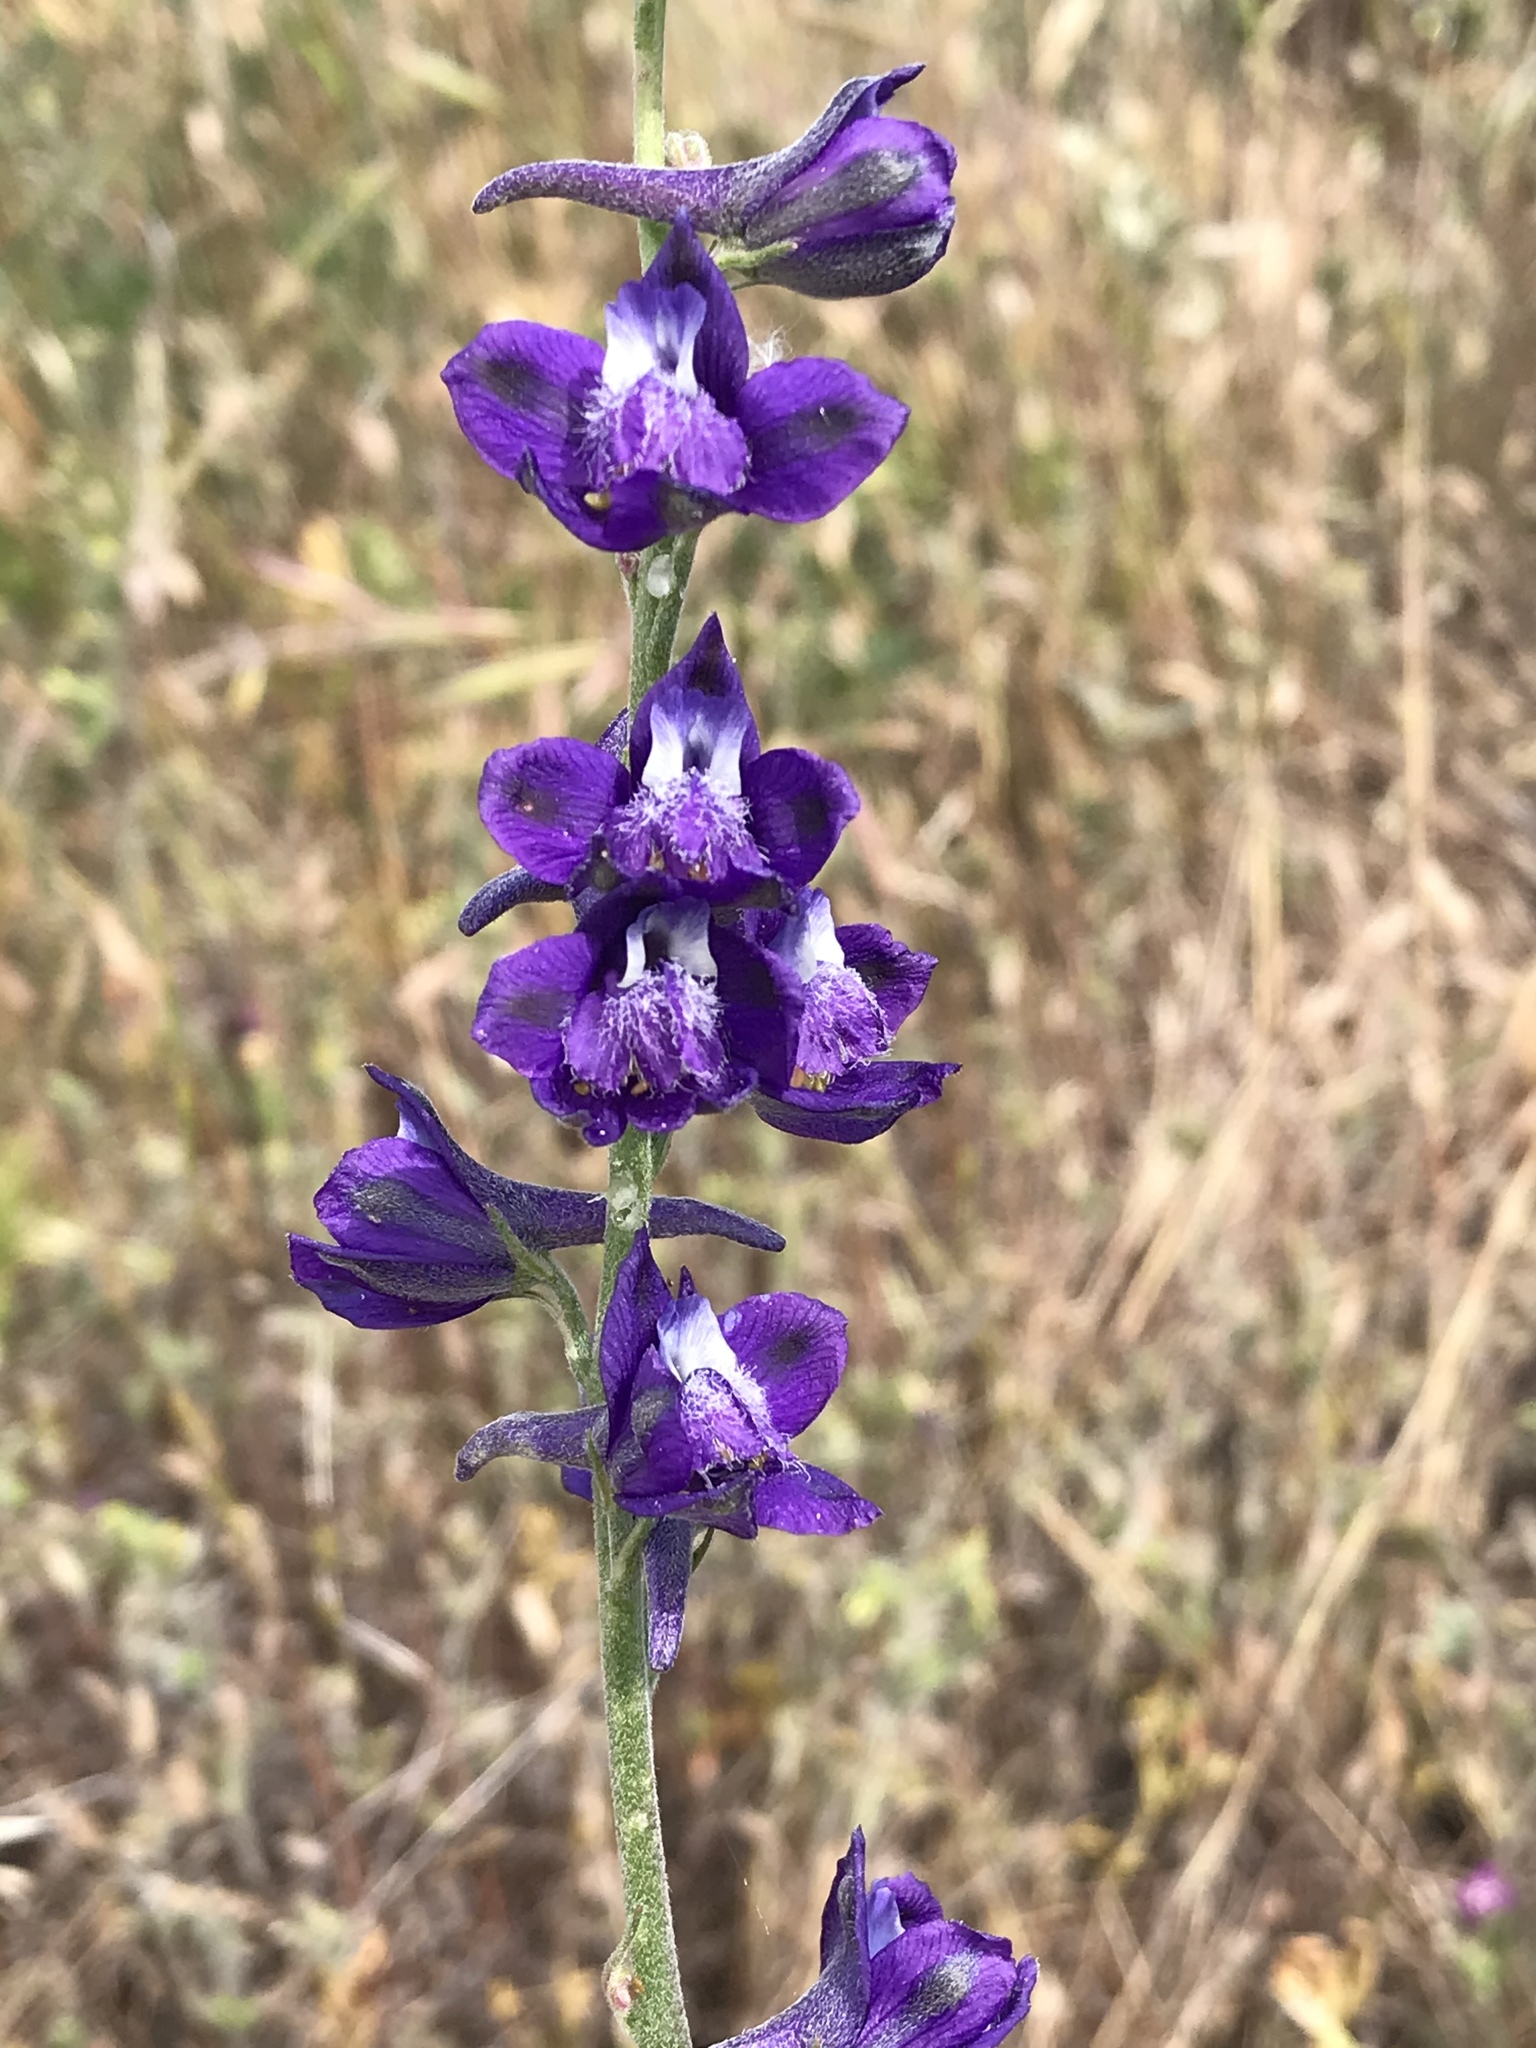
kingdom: Plantae
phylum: Tracheophyta
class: Magnoliopsida
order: Ranunculales
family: Ranunculaceae
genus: Delphinium
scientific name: Delphinium hesperium
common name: Western larkspur
